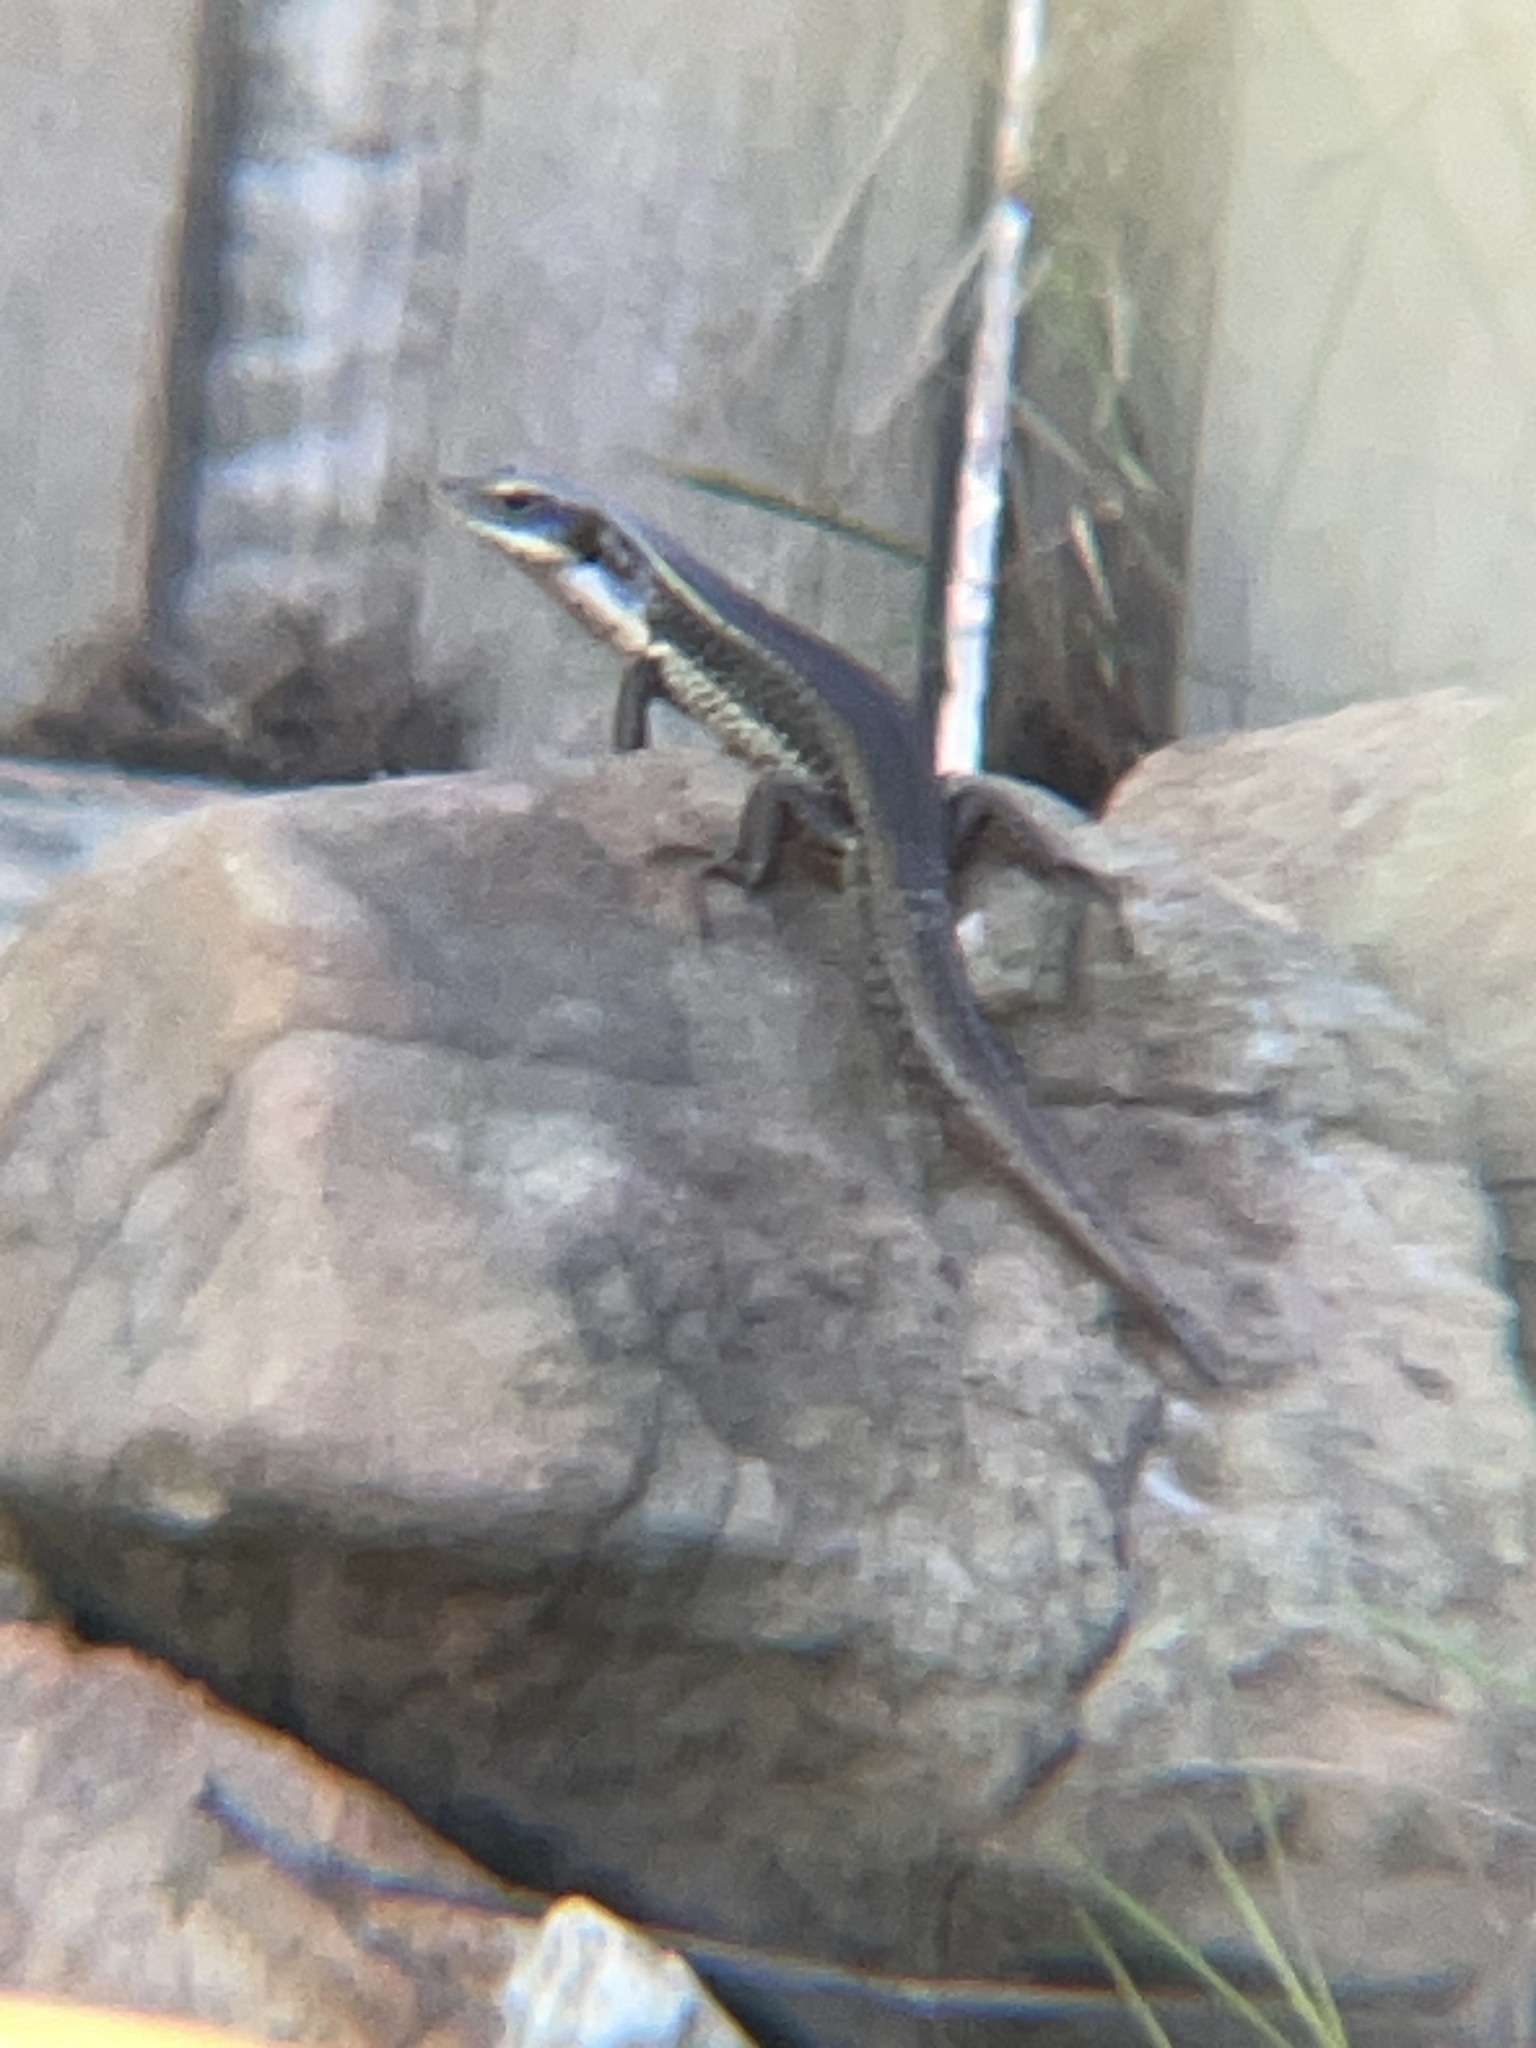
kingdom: Animalia
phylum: Chordata
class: Squamata
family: Scincidae
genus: Eulamprus
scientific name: Eulamprus quoyii
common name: Eastern water skink
